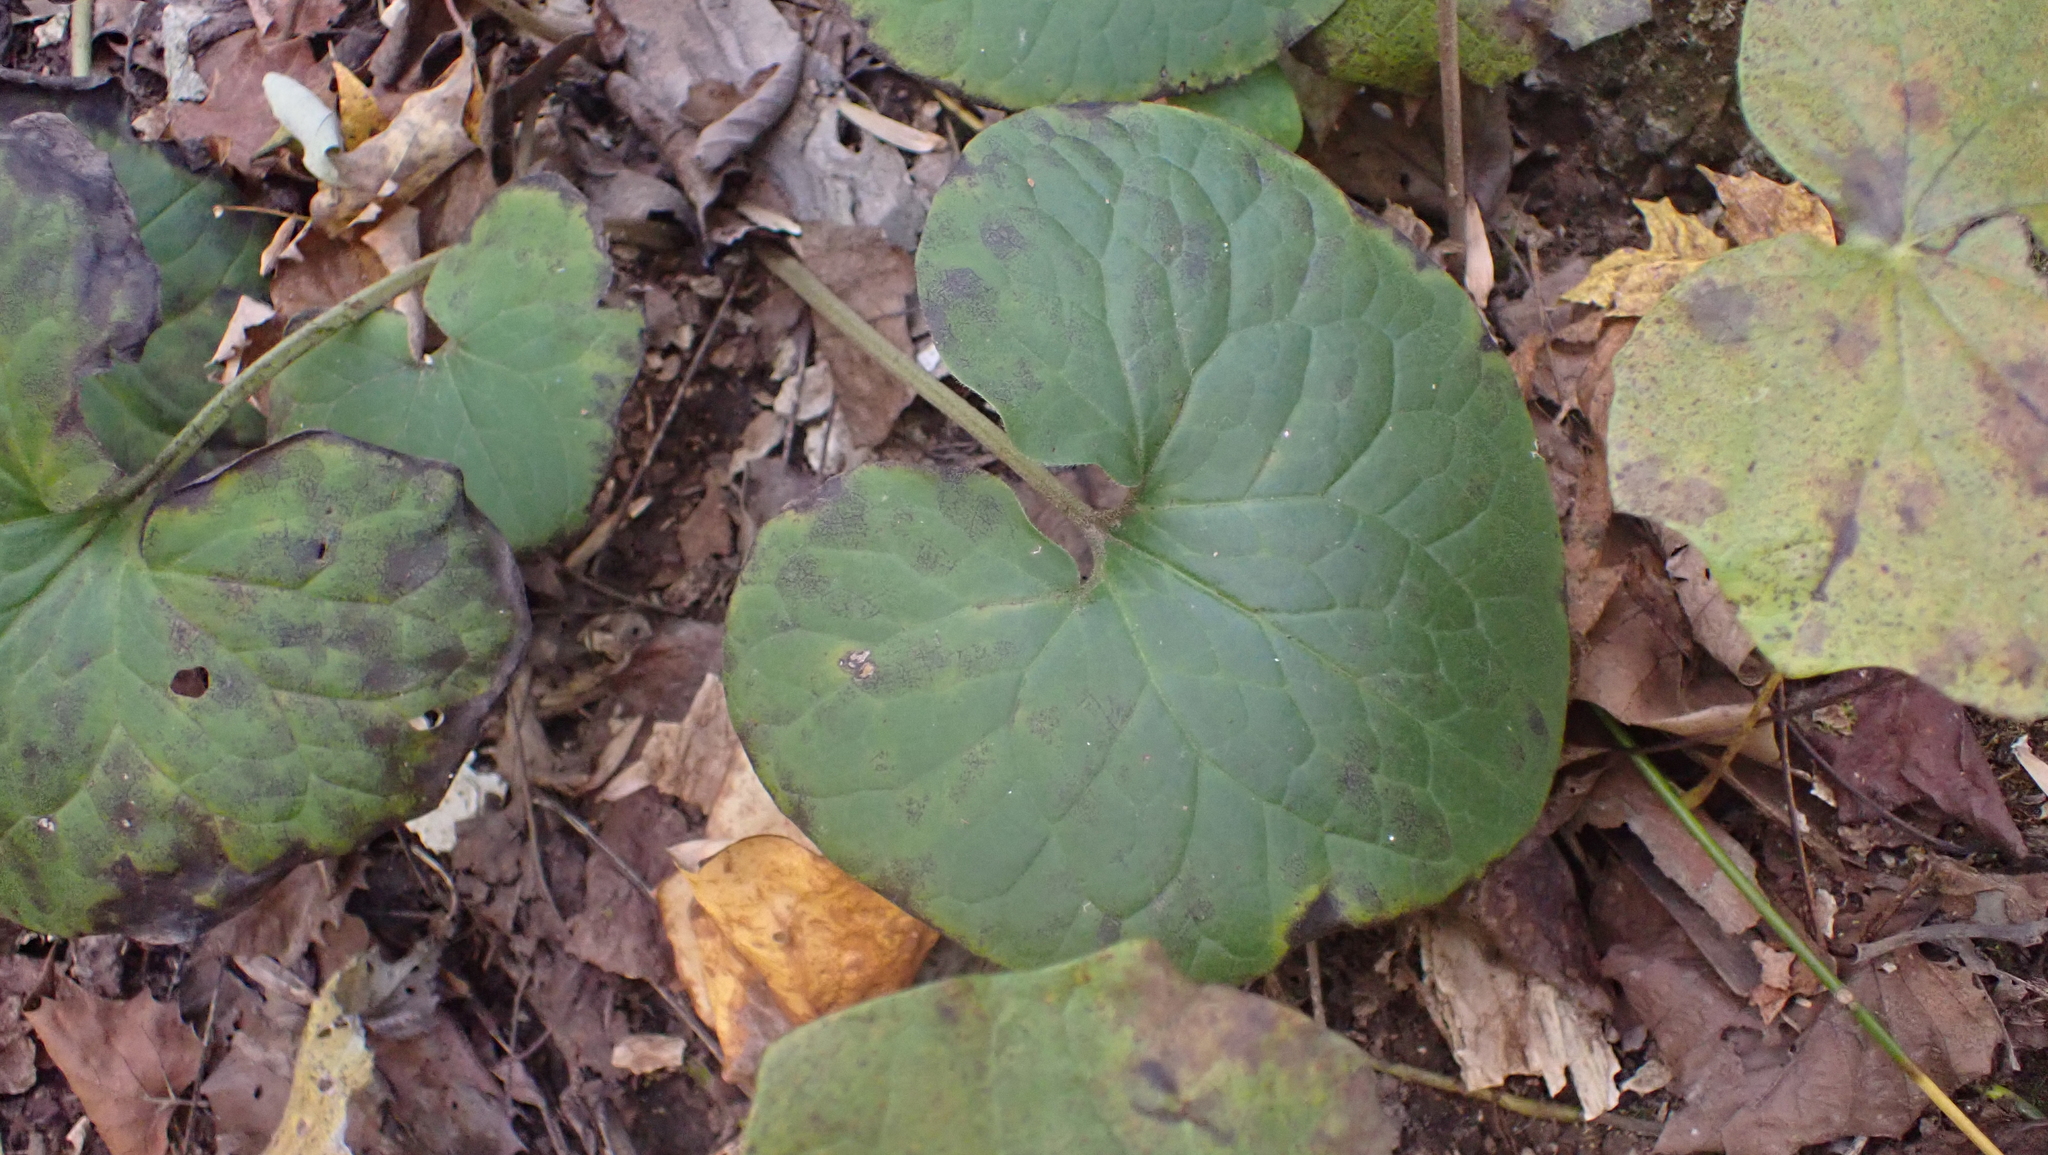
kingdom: Plantae
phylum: Tracheophyta
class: Magnoliopsida
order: Piperales
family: Aristolochiaceae
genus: Asarum
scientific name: Asarum canadense
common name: Wild ginger
